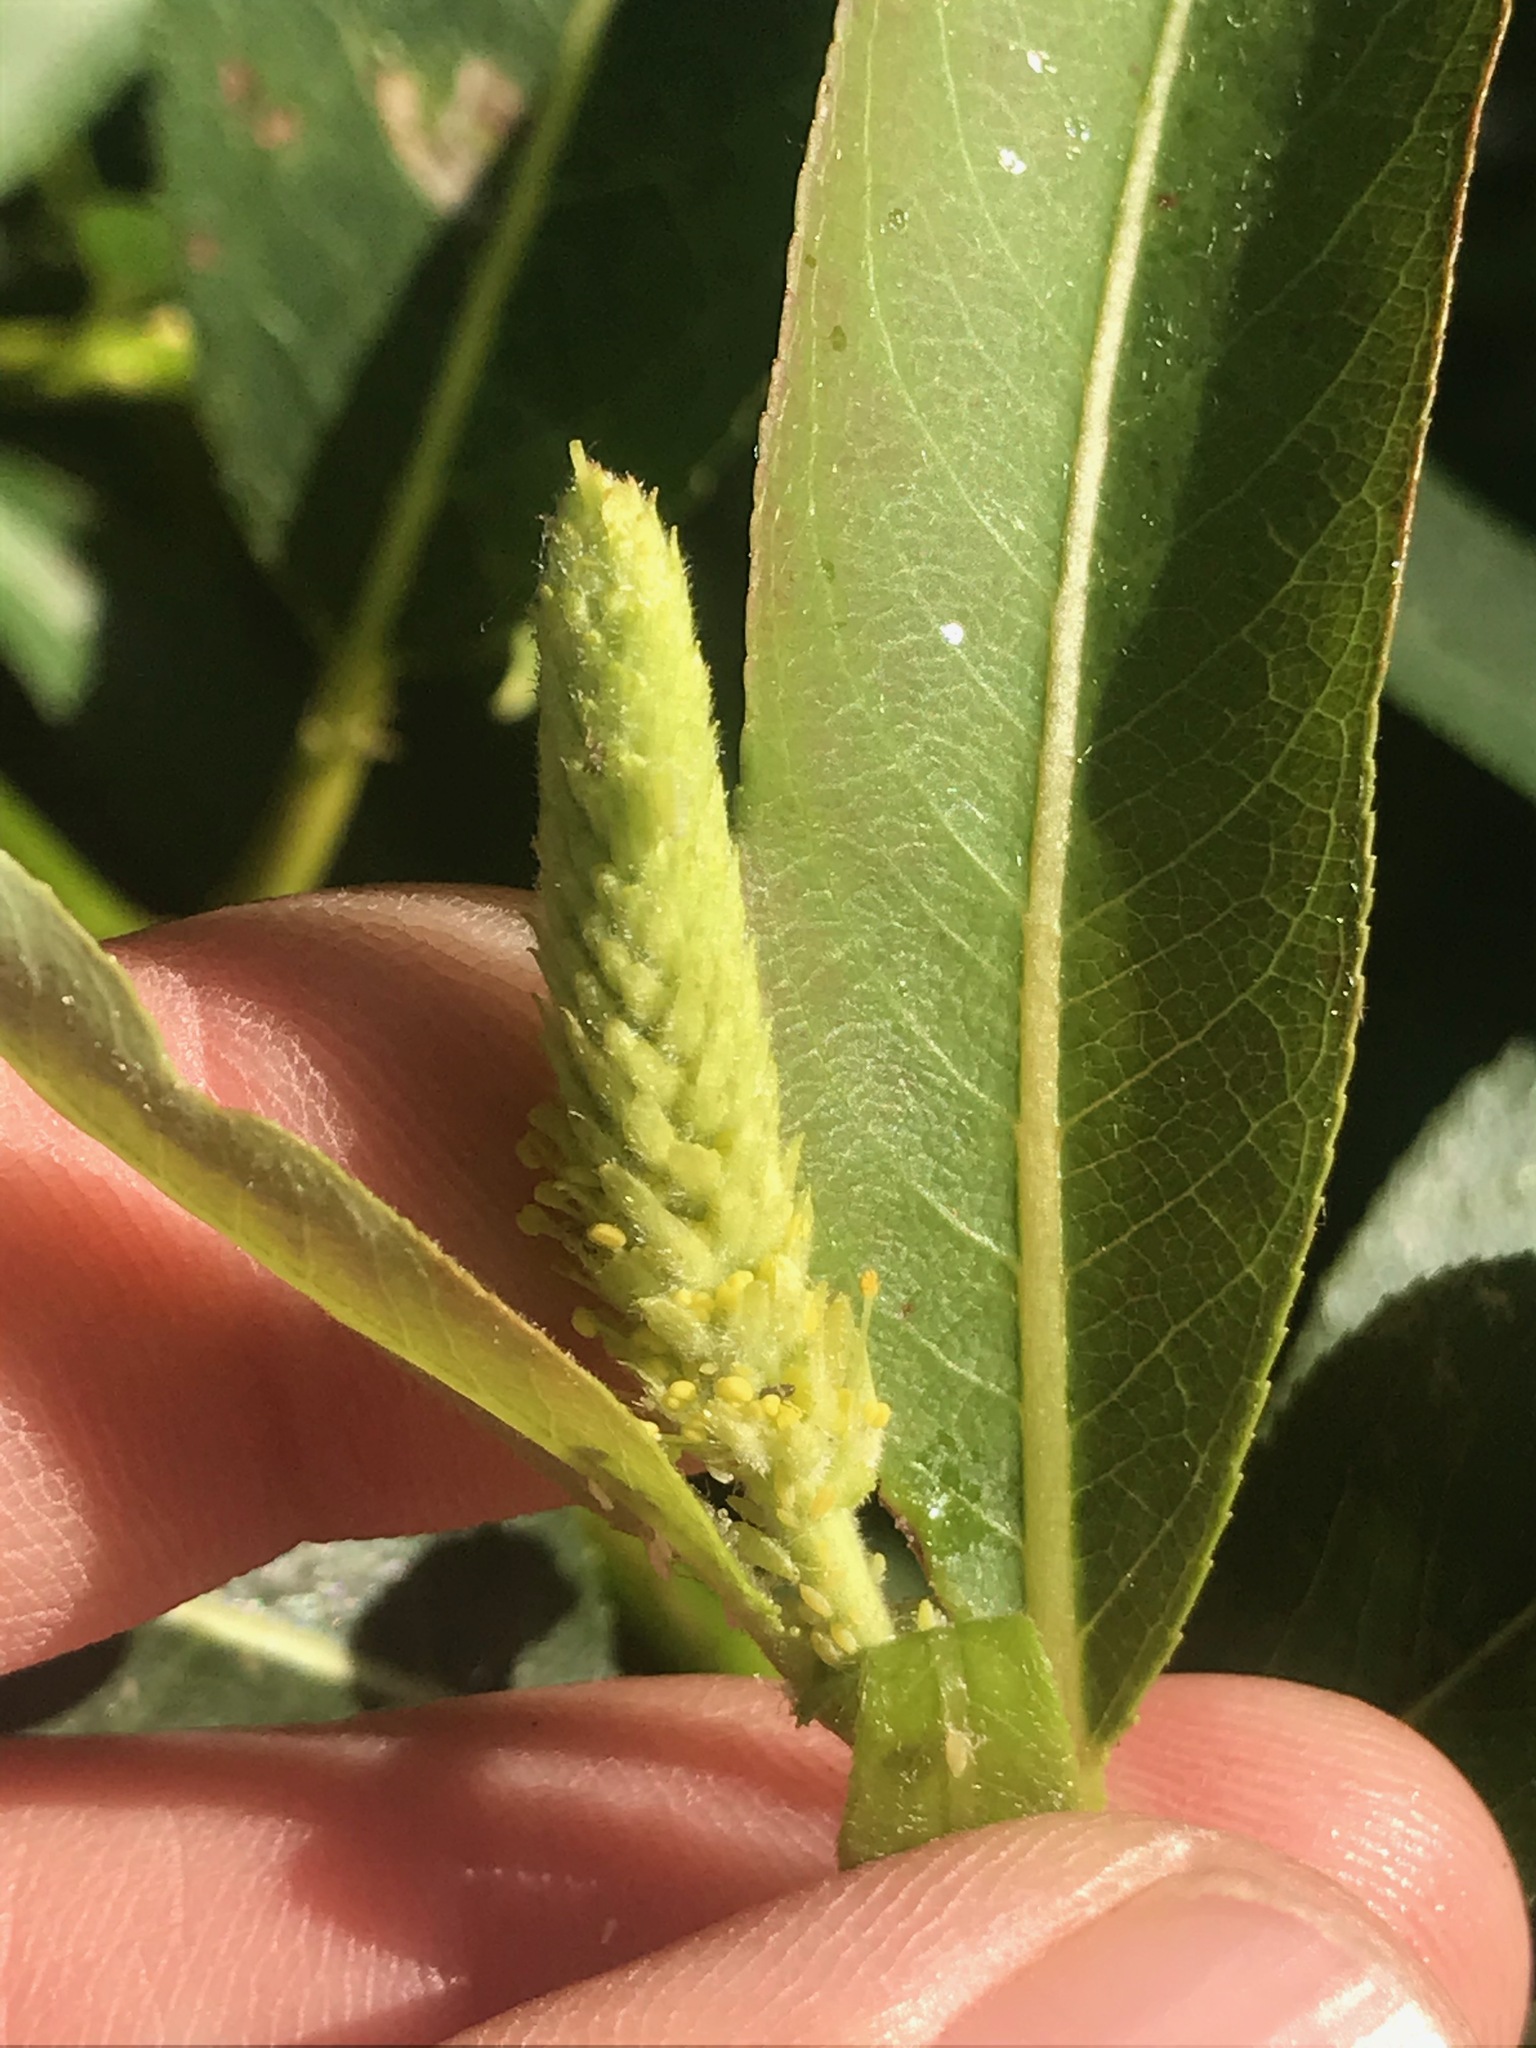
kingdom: Plantae
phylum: Tracheophyta
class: Magnoliopsida
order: Malpighiales
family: Salicaceae
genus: Salix
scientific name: Salix lucida
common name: Shining willow
